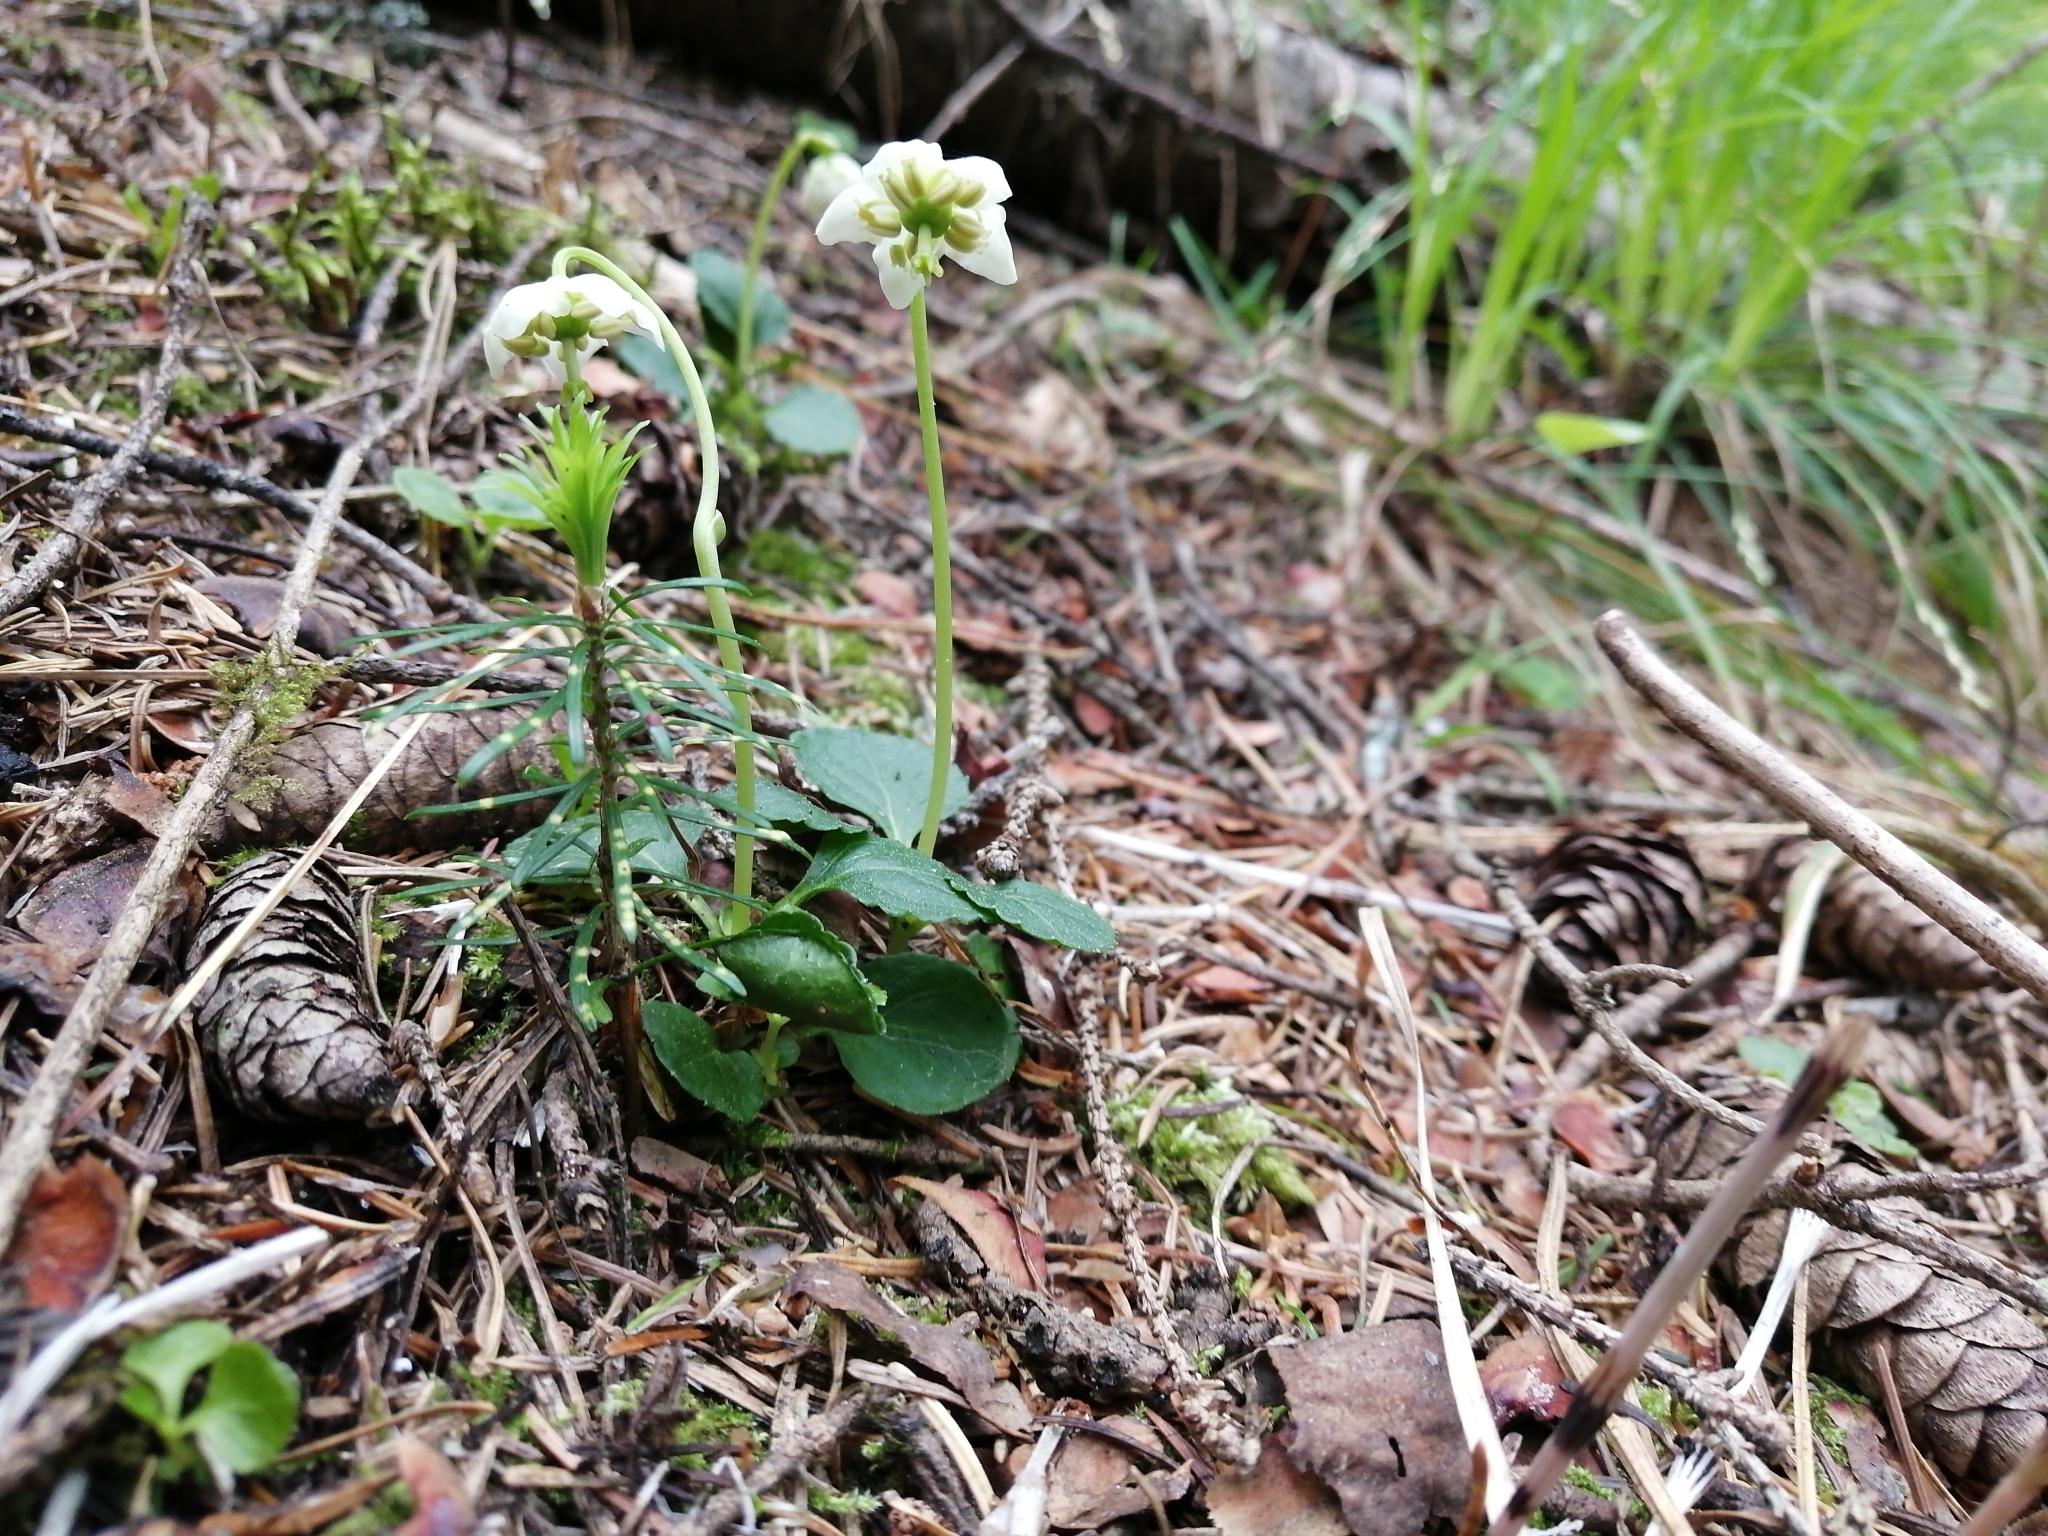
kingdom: Plantae
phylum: Tracheophyta
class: Magnoliopsida
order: Ericales
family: Ericaceae
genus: Moneses
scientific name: Moneses uniflora
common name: One-flowered wintergreen
